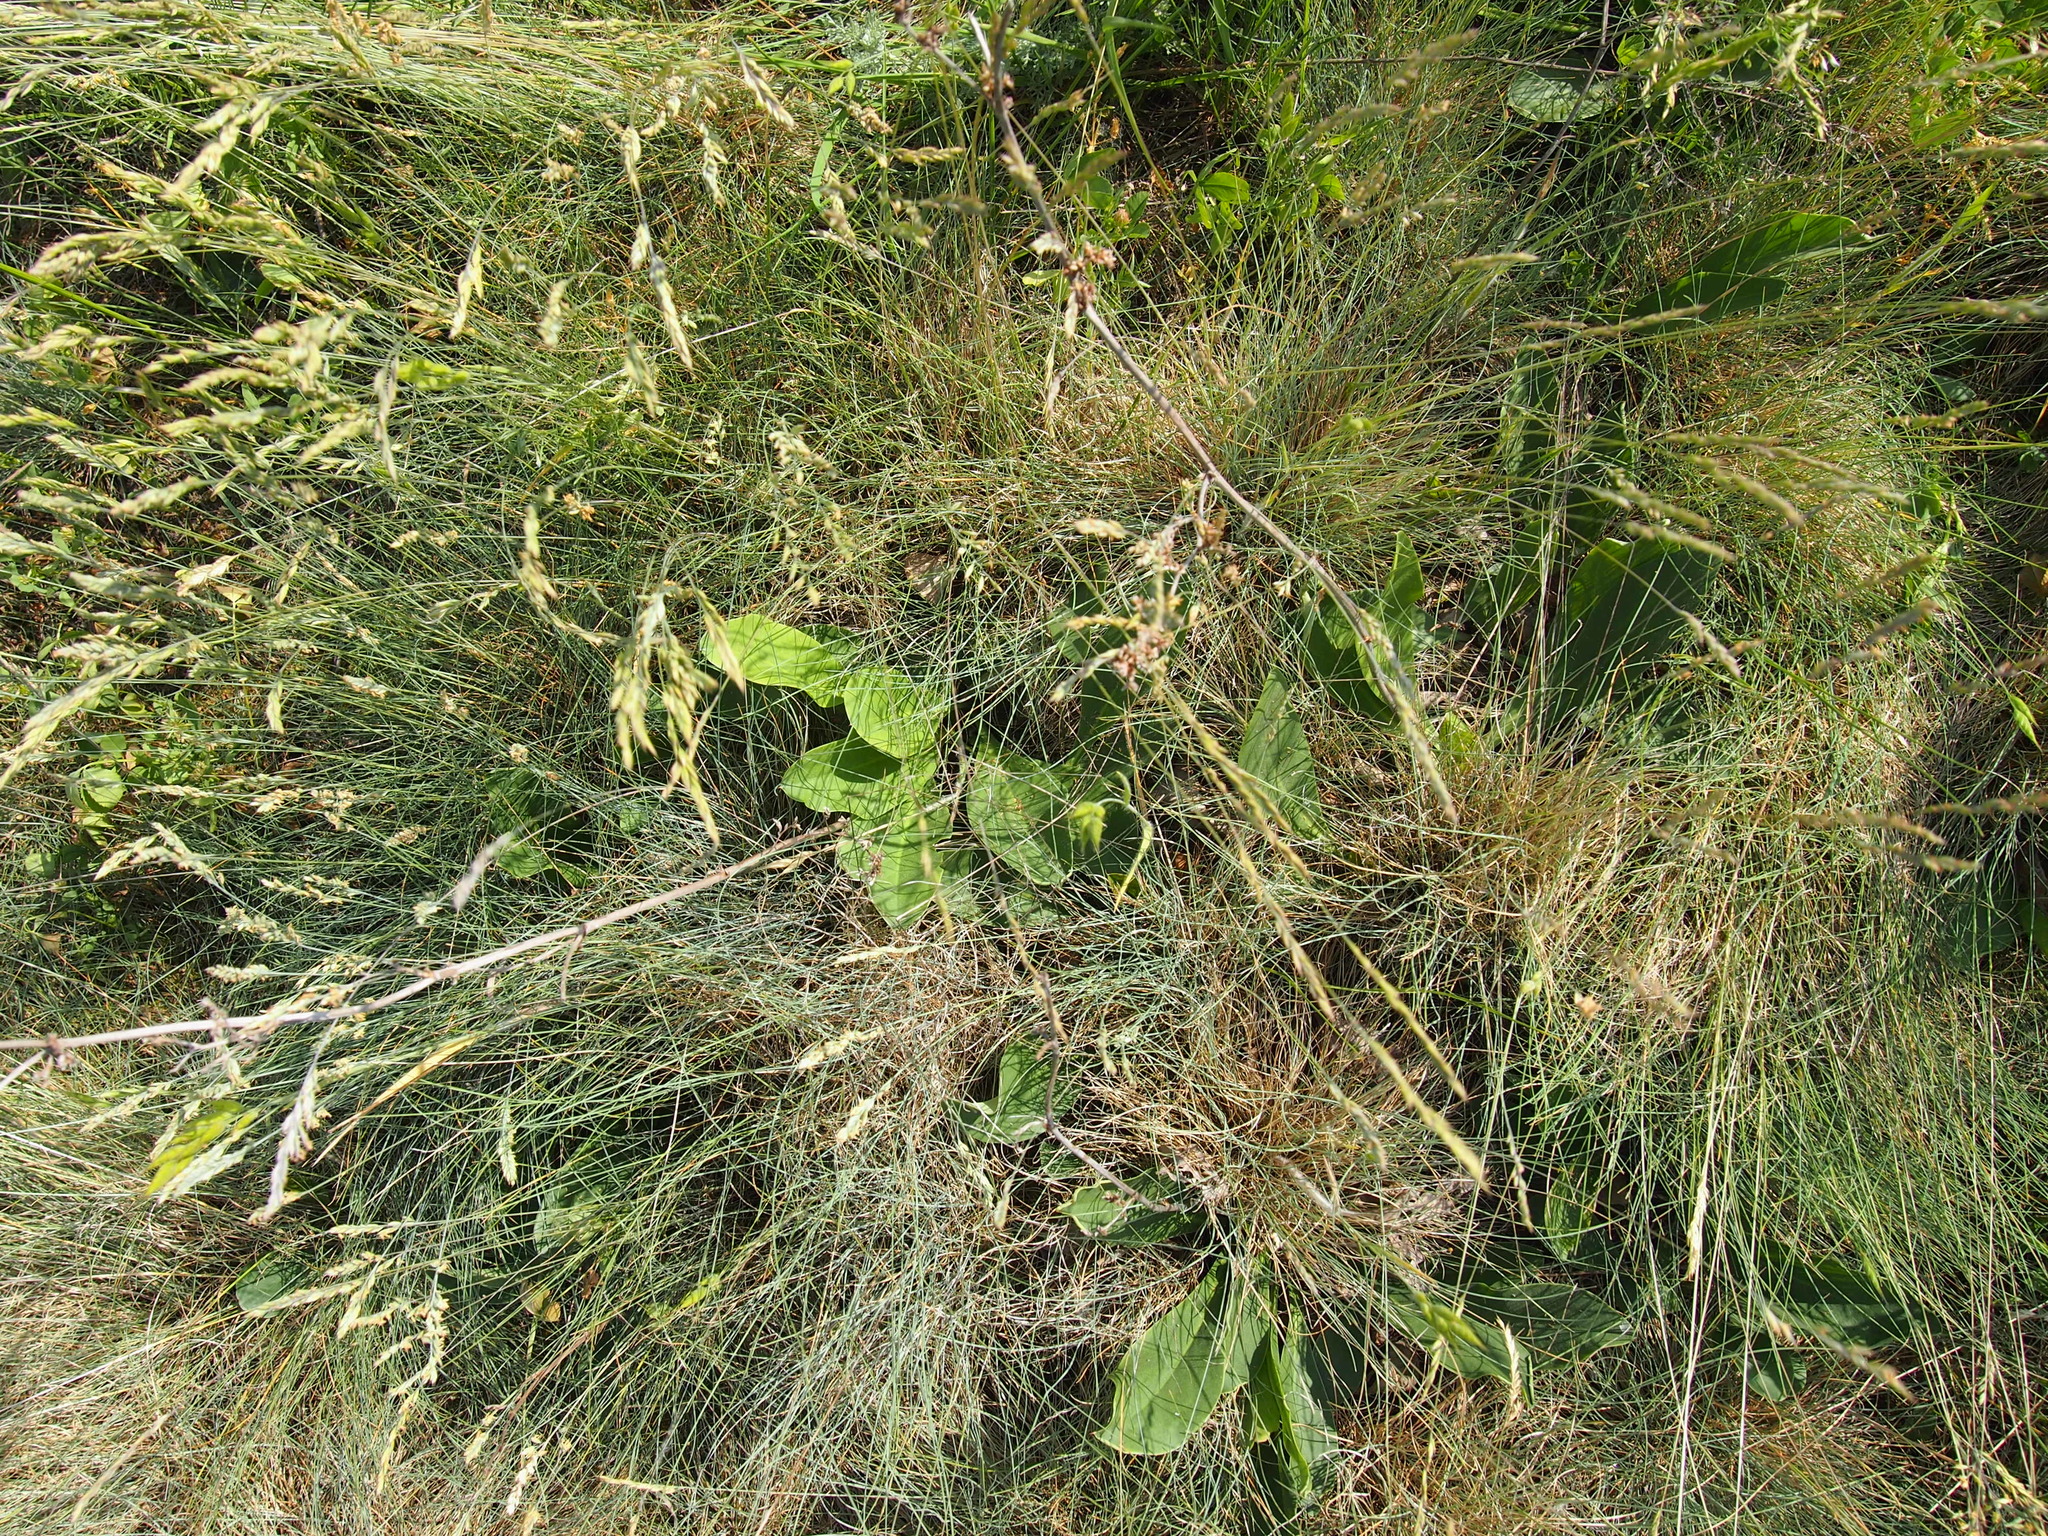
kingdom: Plantae
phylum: Tracheophyta
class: Magnoliopsida
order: Caryophyllales
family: Plumbaginaceae
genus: Limonium
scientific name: Limonium gmelini
